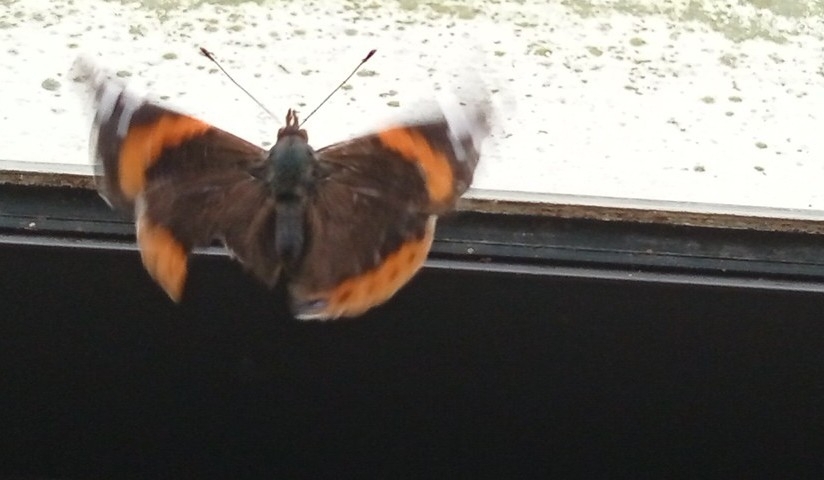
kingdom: Animalia
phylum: Arthropoda
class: Insecta
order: Lepidoptera
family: Nymphalidae
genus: Vanessa
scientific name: Vanessa atalanta
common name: Red admiral
